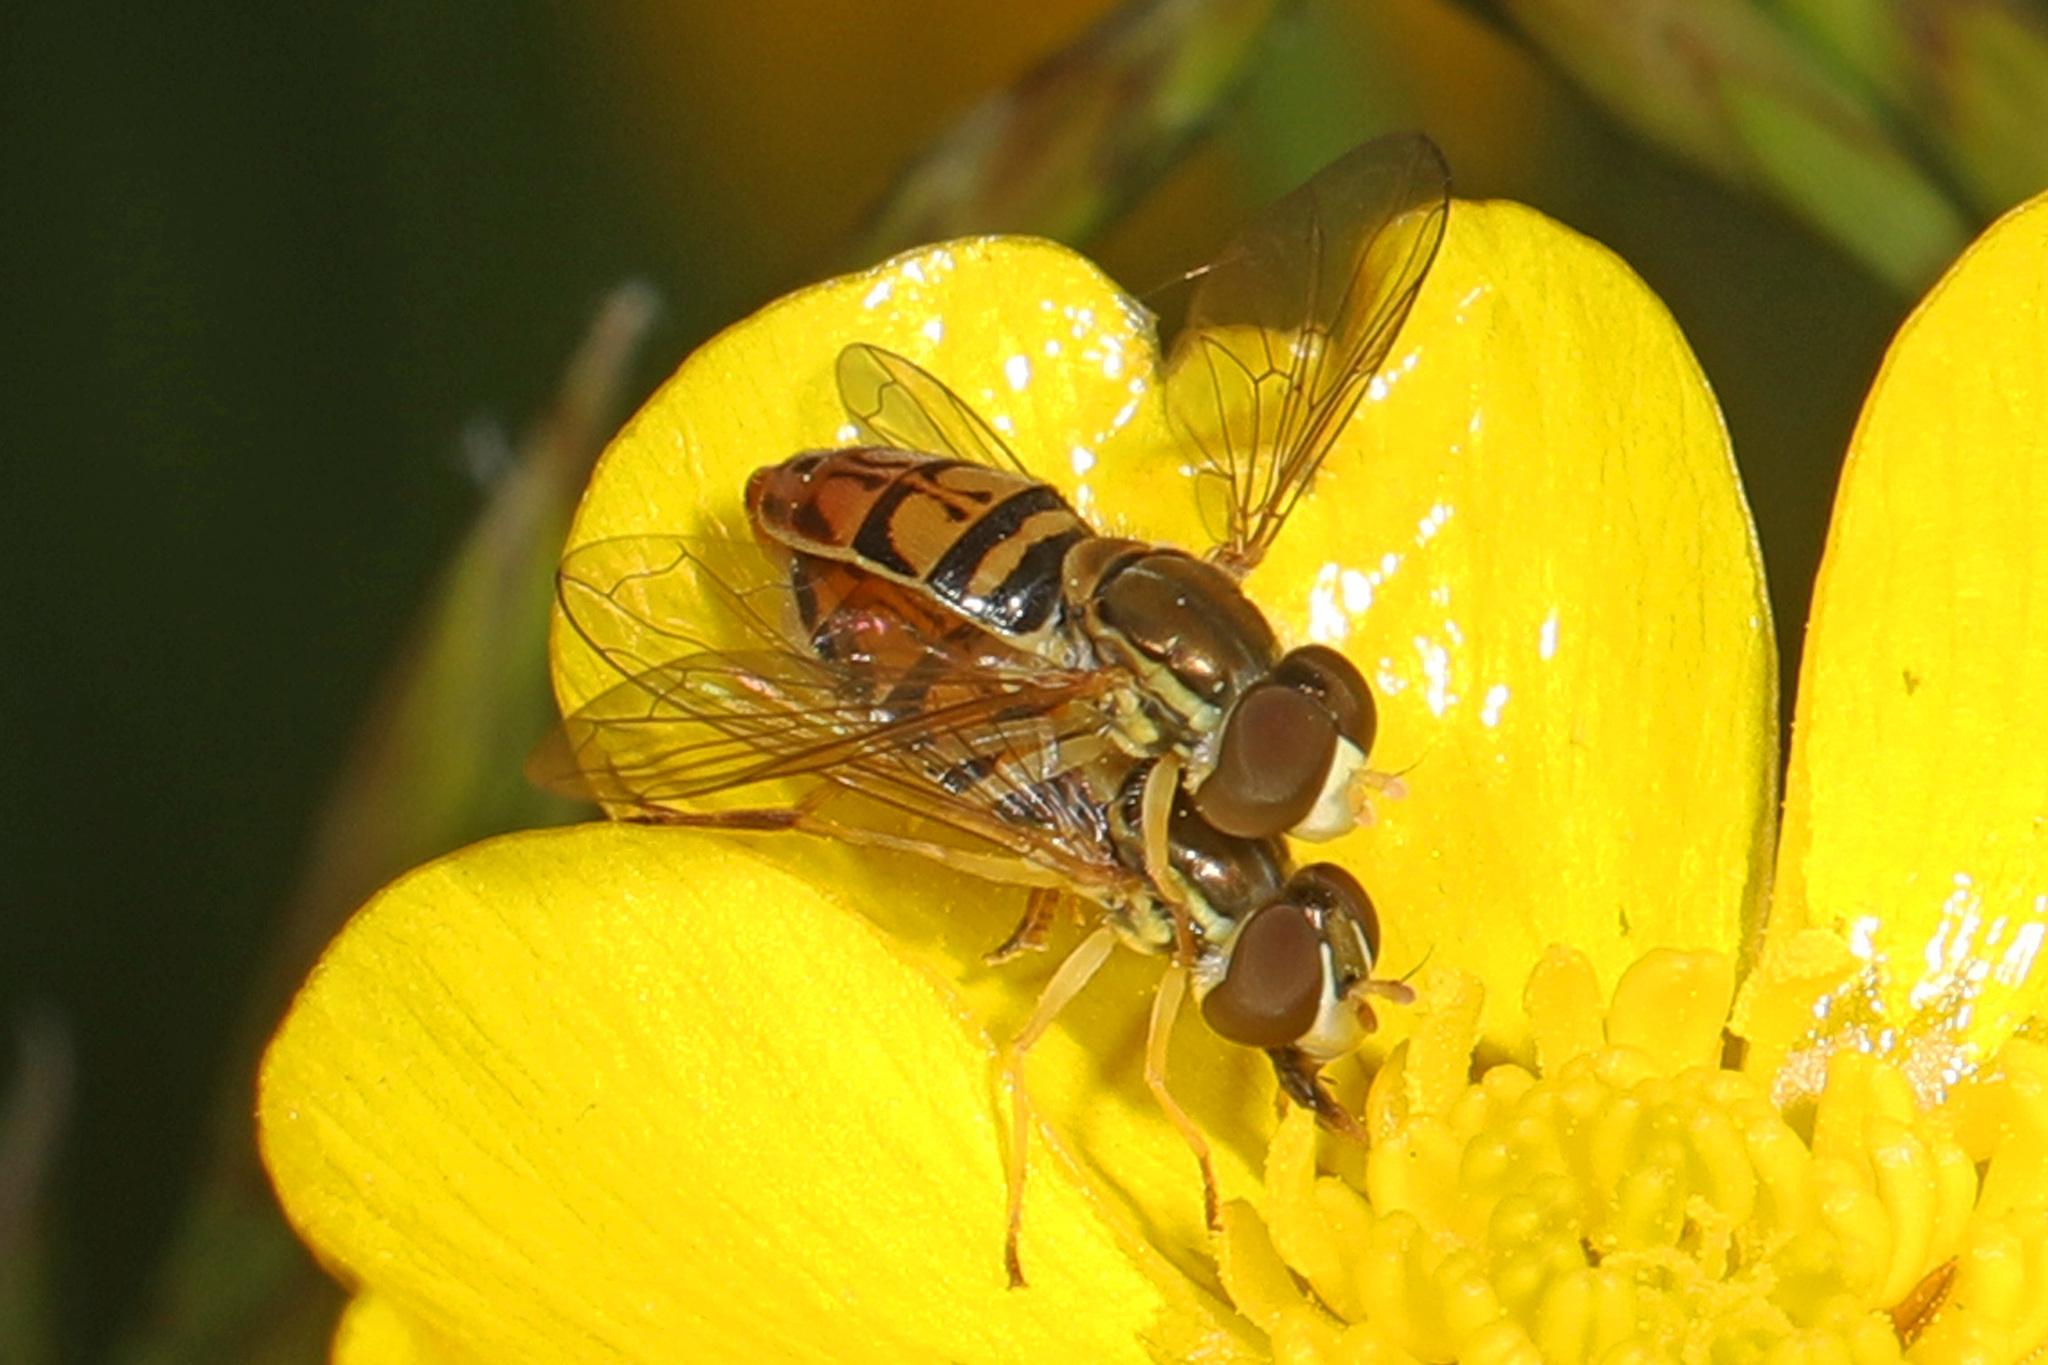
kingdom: Animalia
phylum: Arthropoda
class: Insecta
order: Diptera
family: Syrphidae
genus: Toxomerus
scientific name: Toxomerus marginatus
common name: Syrphid fly
